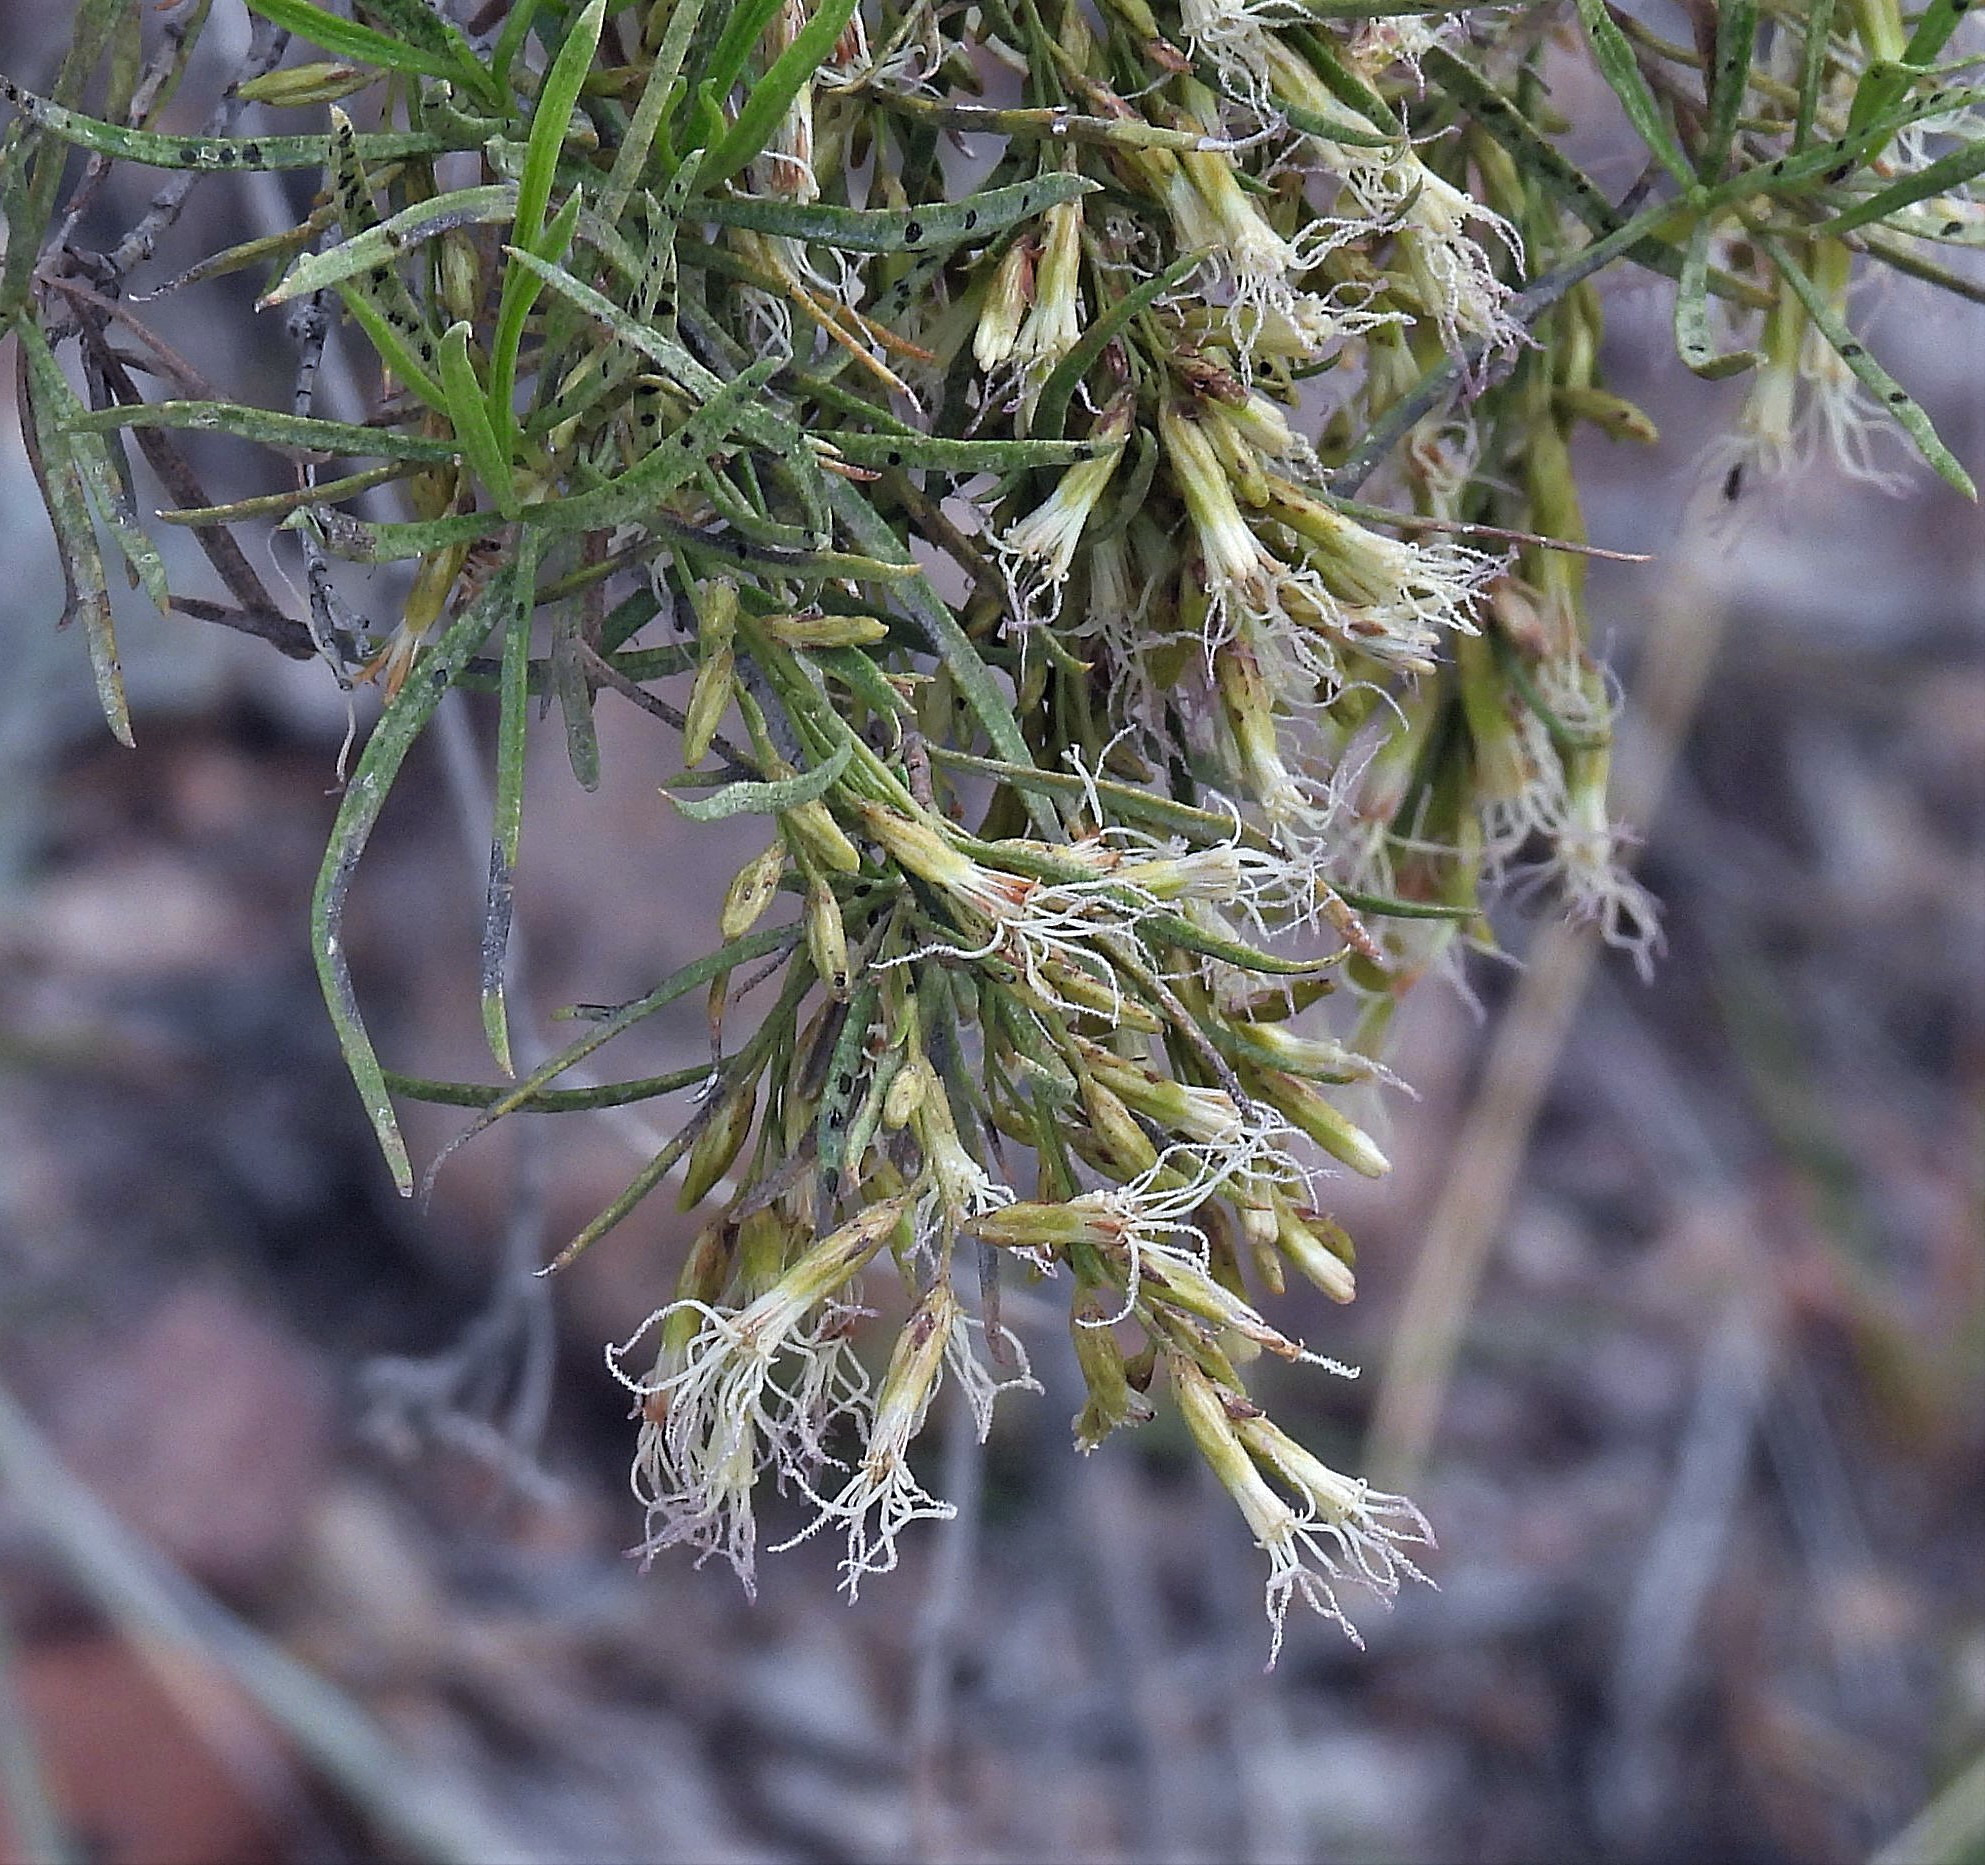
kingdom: Plantae
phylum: Tracheophyta
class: Magnoliopsida
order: Asterales
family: Asteraceae
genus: Acanthostyles
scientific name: Acanthostyles buniifolius
